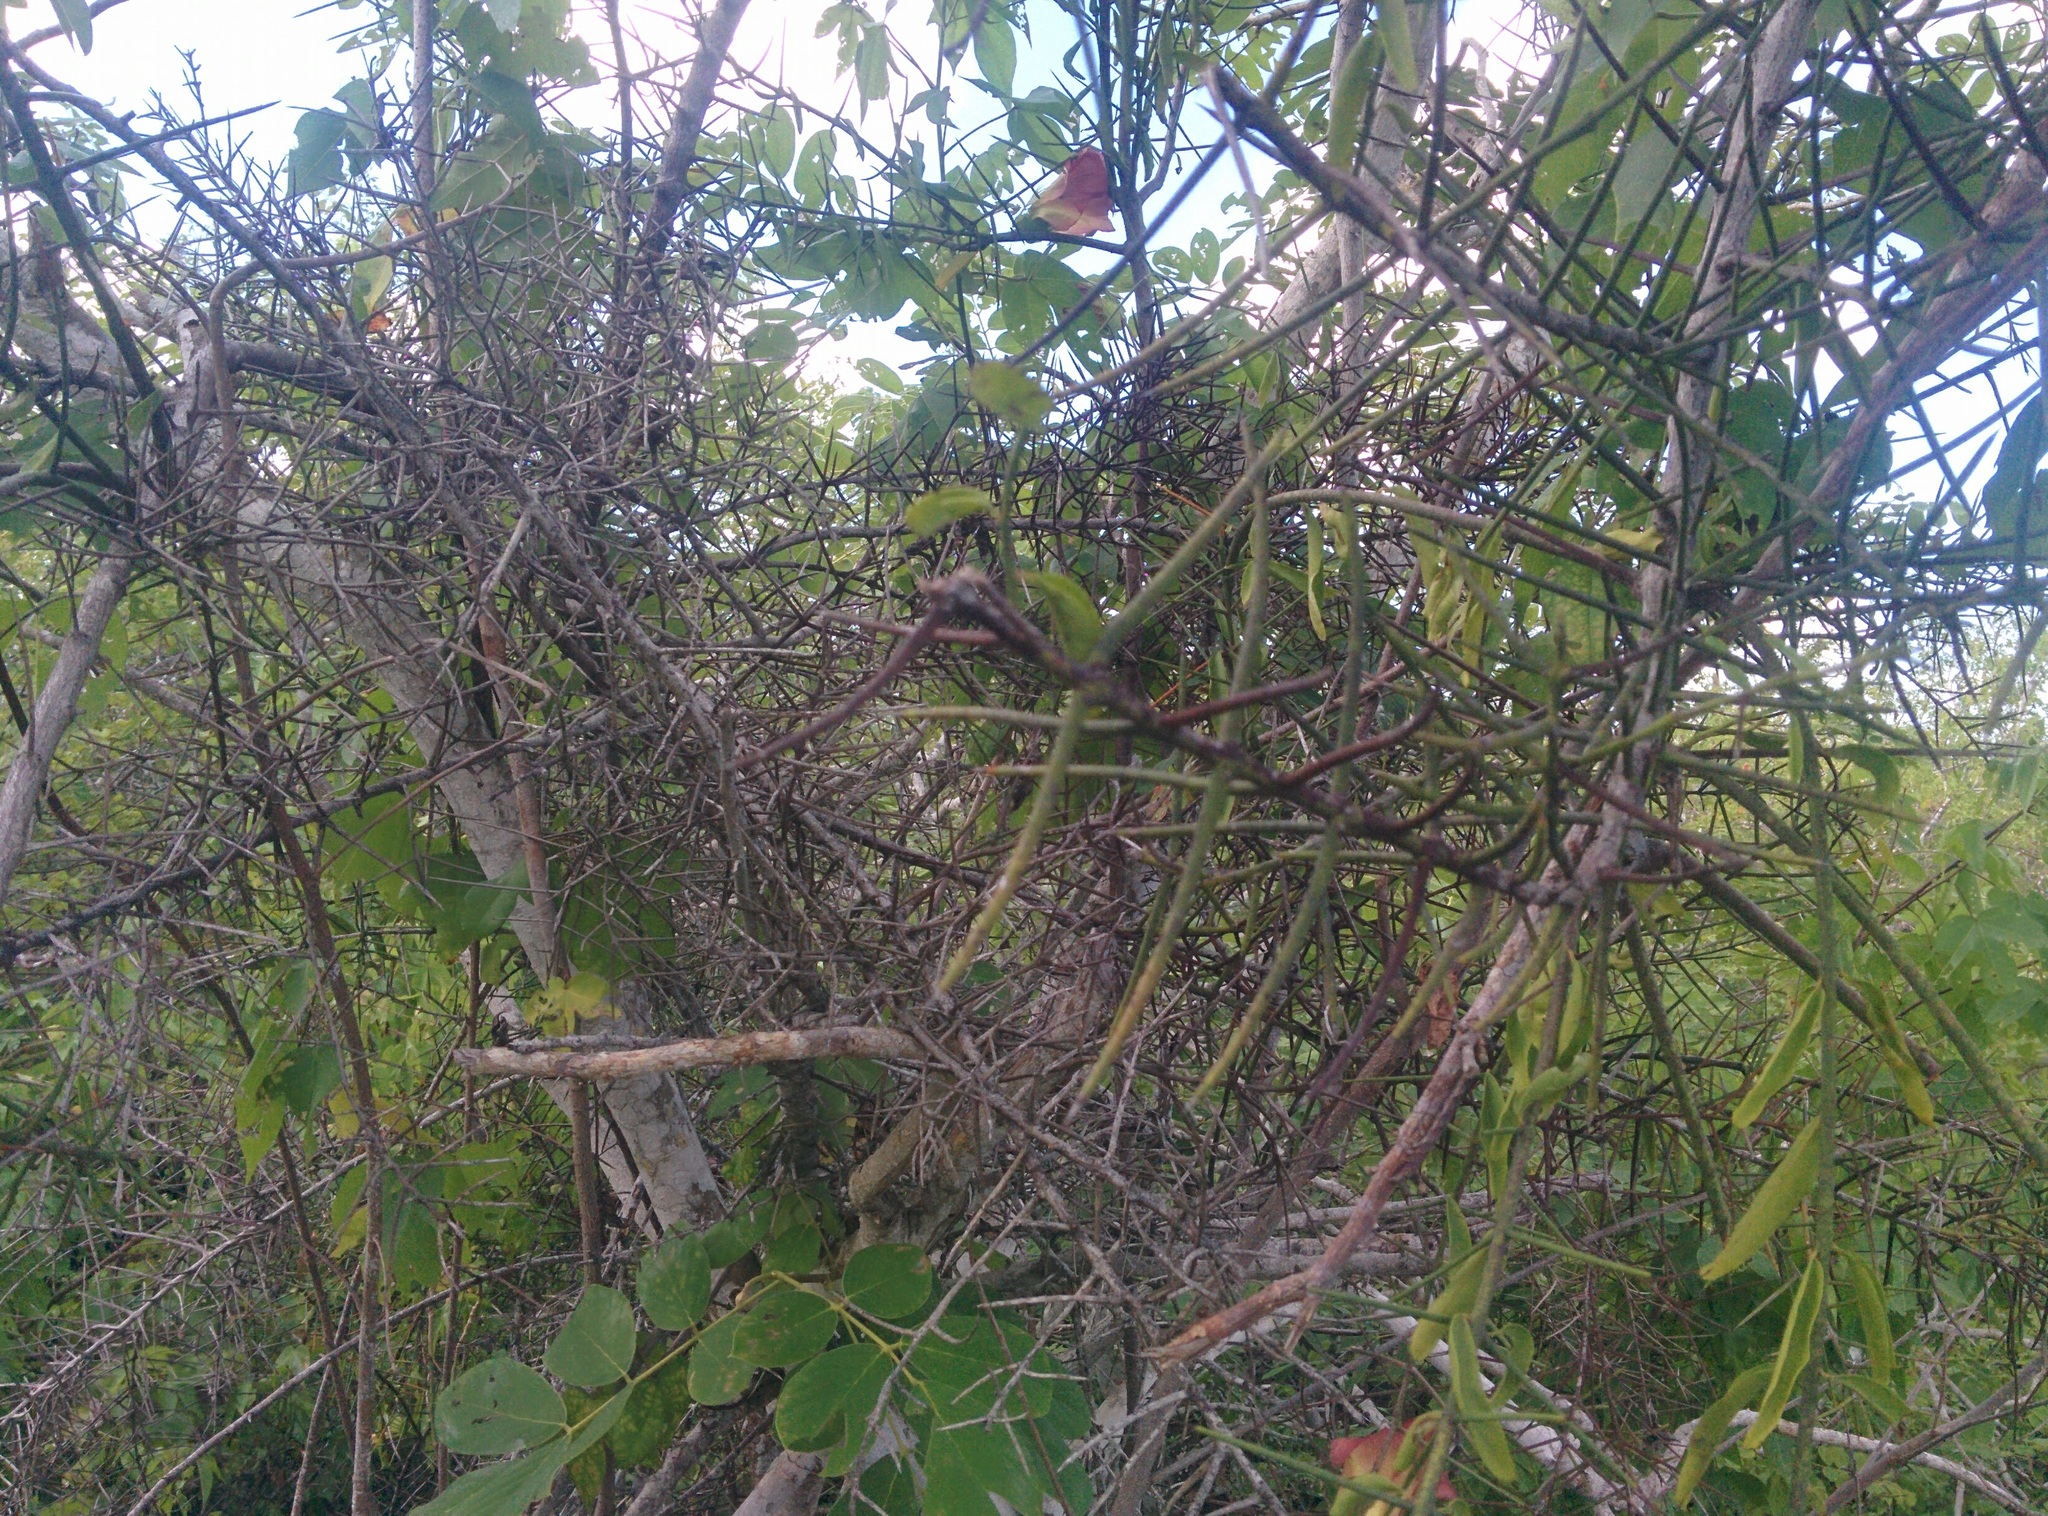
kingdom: Plantae
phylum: Tracheophyta
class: Magnoliopsida
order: Rosales
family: Rhamnaceae
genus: Scutia
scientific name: Scutia spicata
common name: Spiny bush
